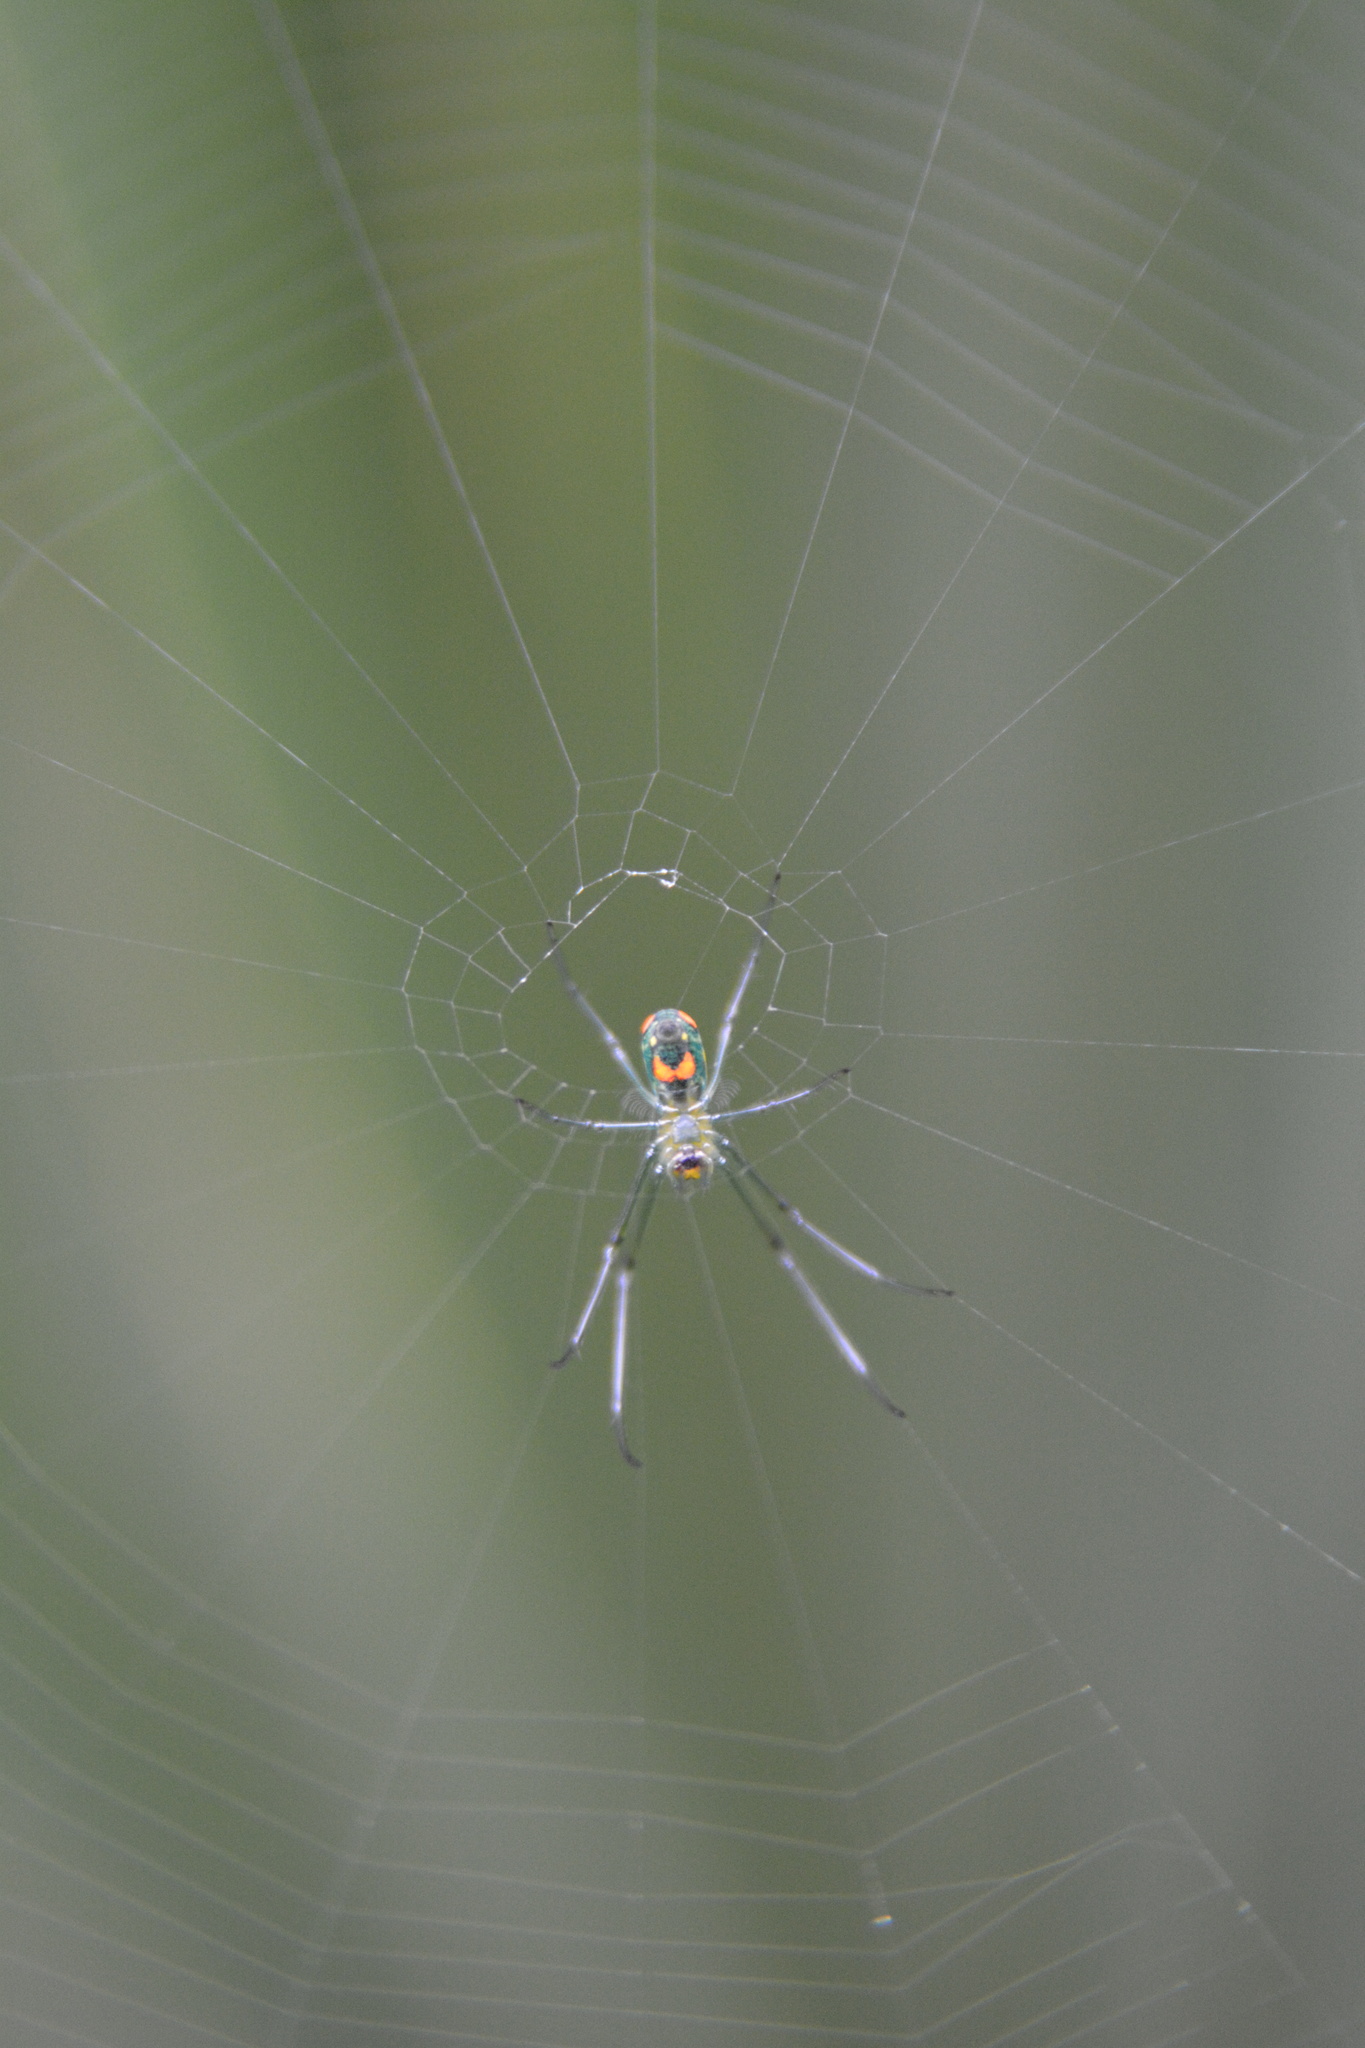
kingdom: Animalia
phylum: Arthropoda
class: Arachnida
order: Araneae
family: Tetragnathidae
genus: Leucauge
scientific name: Leucauge argyrobapta
